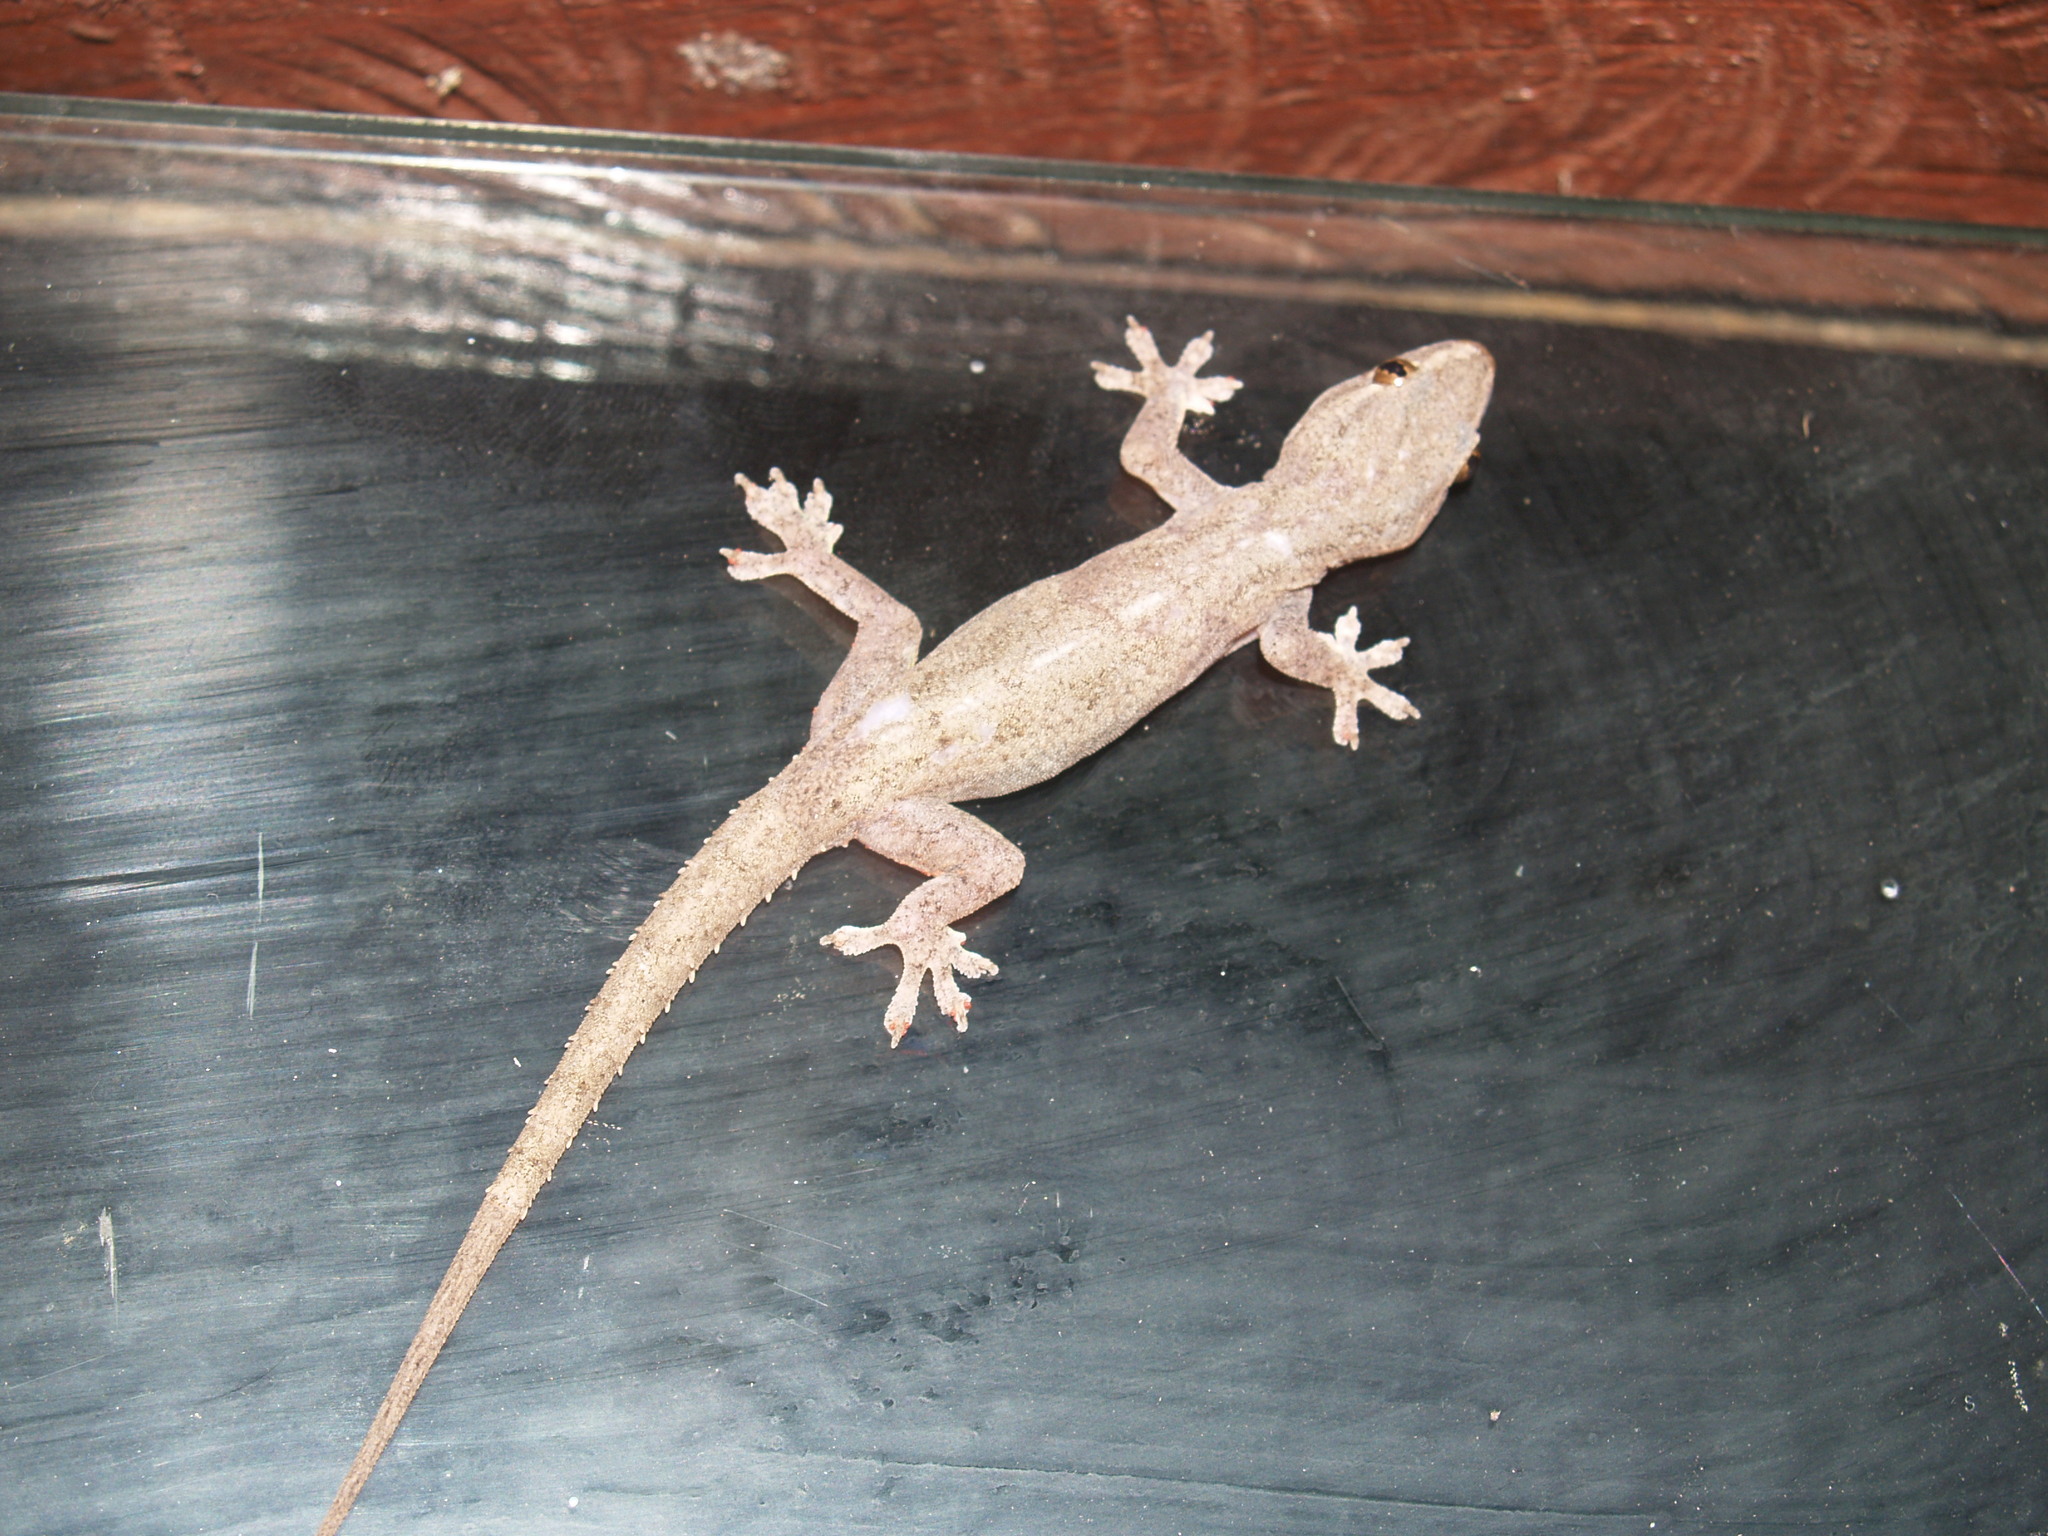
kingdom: Animalia
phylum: Chordata
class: Squamata
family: Gekkonidae
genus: Hemidactylus
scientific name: Hemidactylus frenatus
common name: Common house gecko
